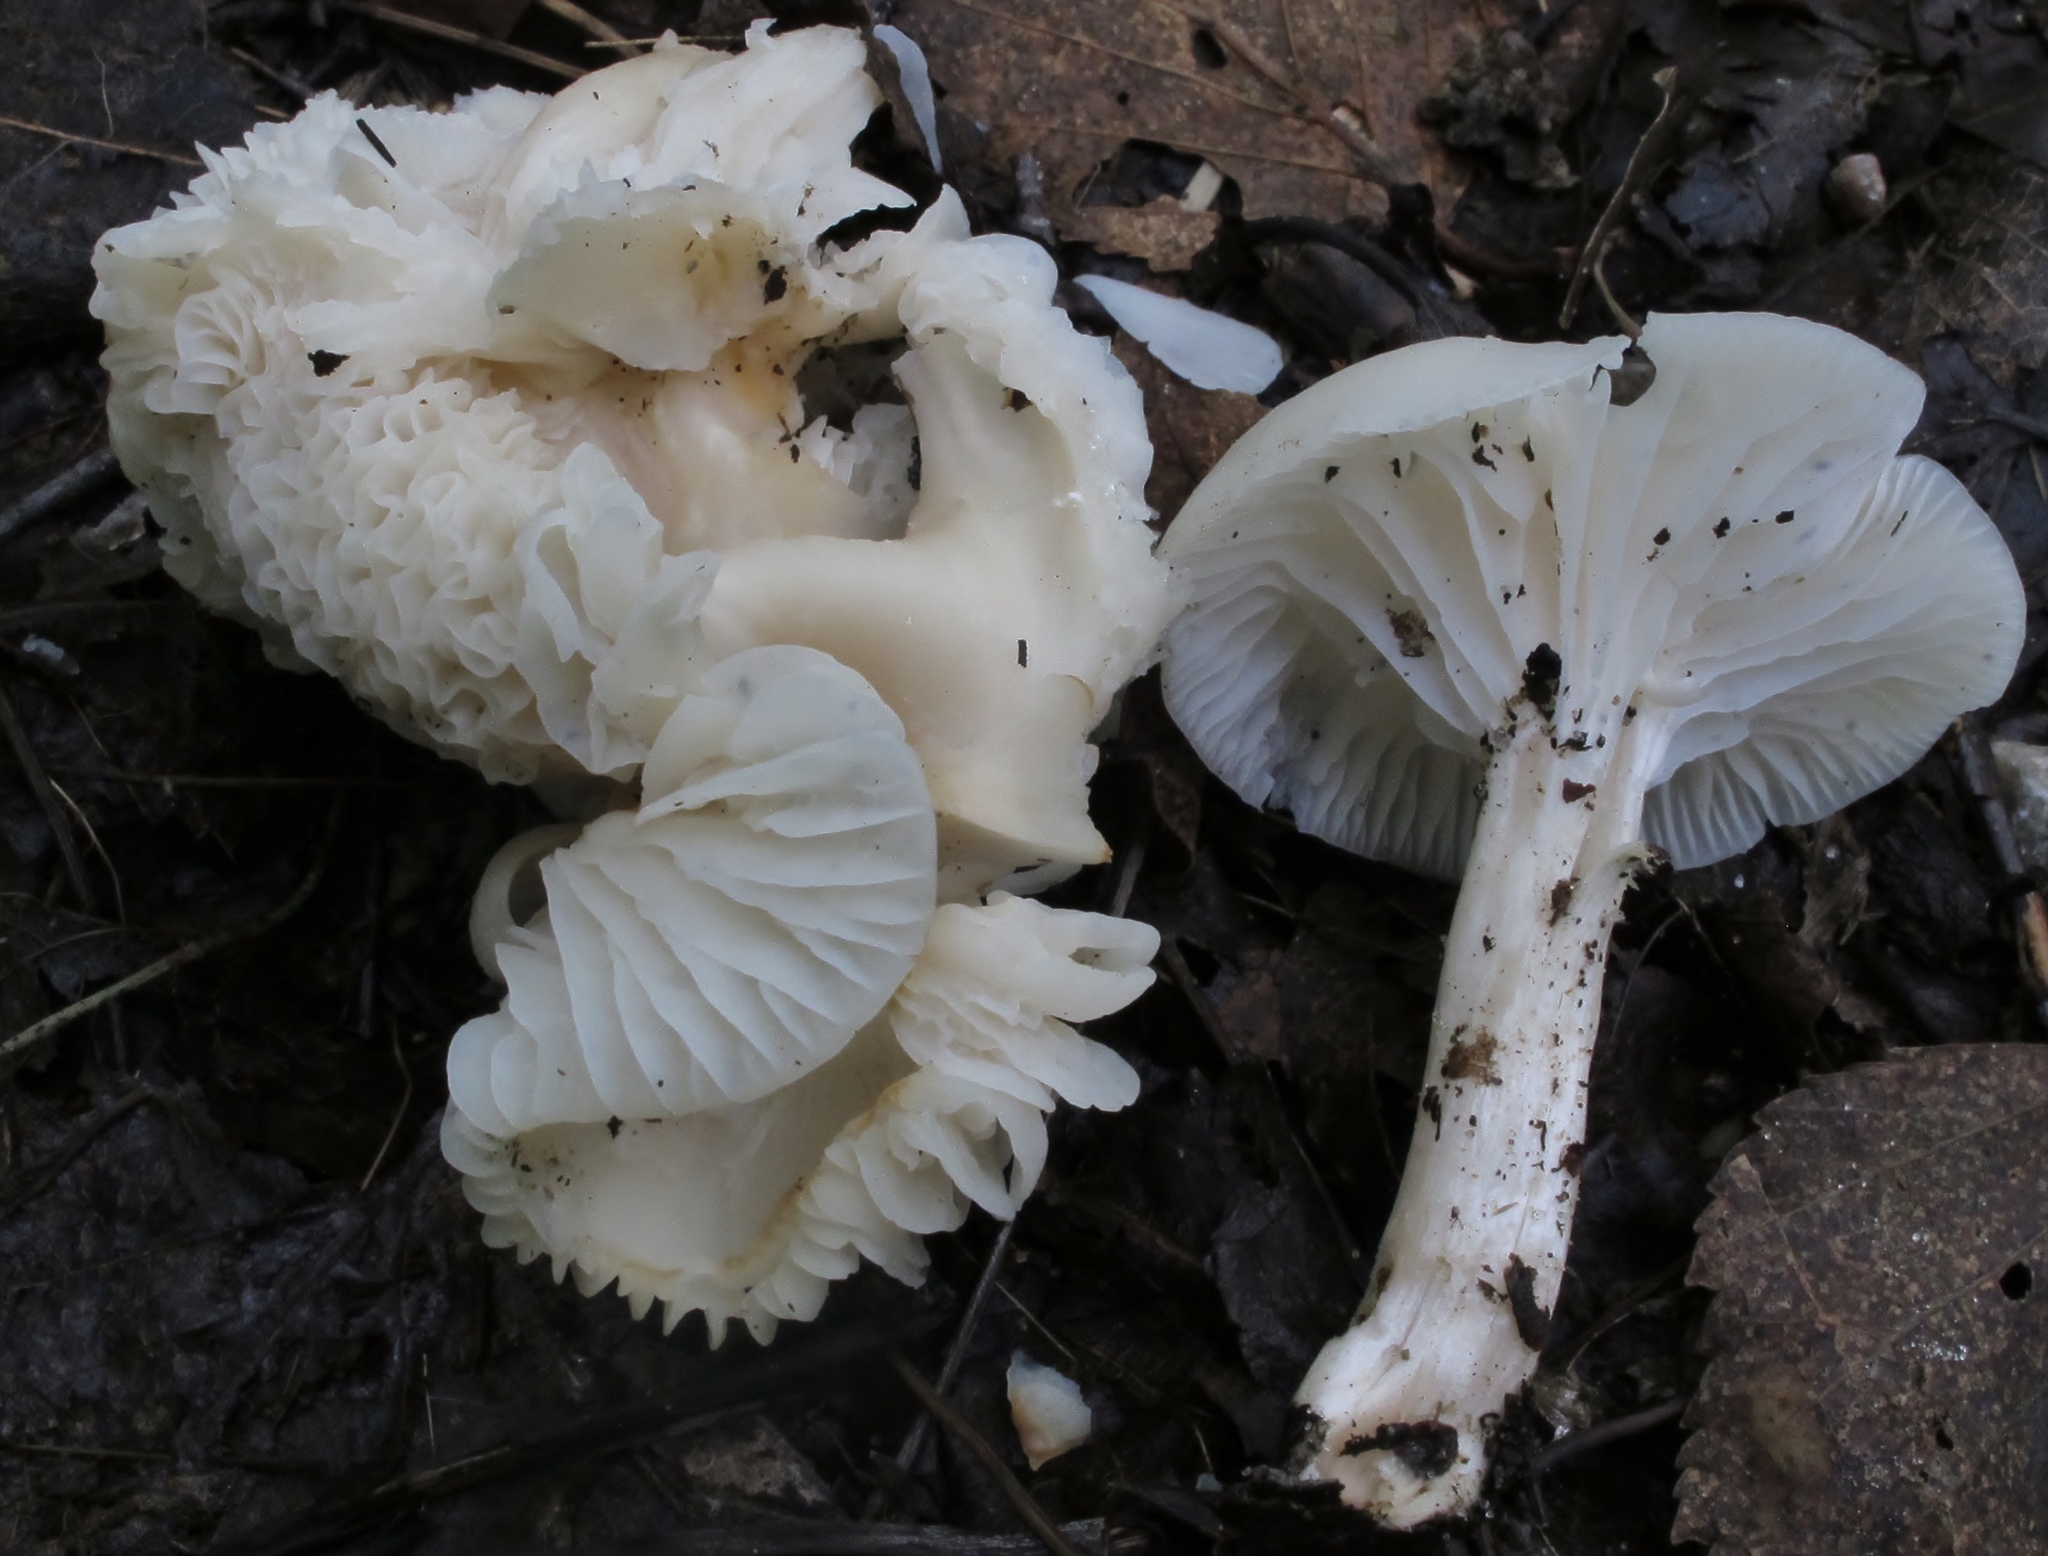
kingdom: Fungi
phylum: Basidiomycota
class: Agaricomycetes
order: Agaricales
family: Hygrophoraceae
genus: Cuphophyllus
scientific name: Cuphophyllus virgineus
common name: Snowy waxcap
